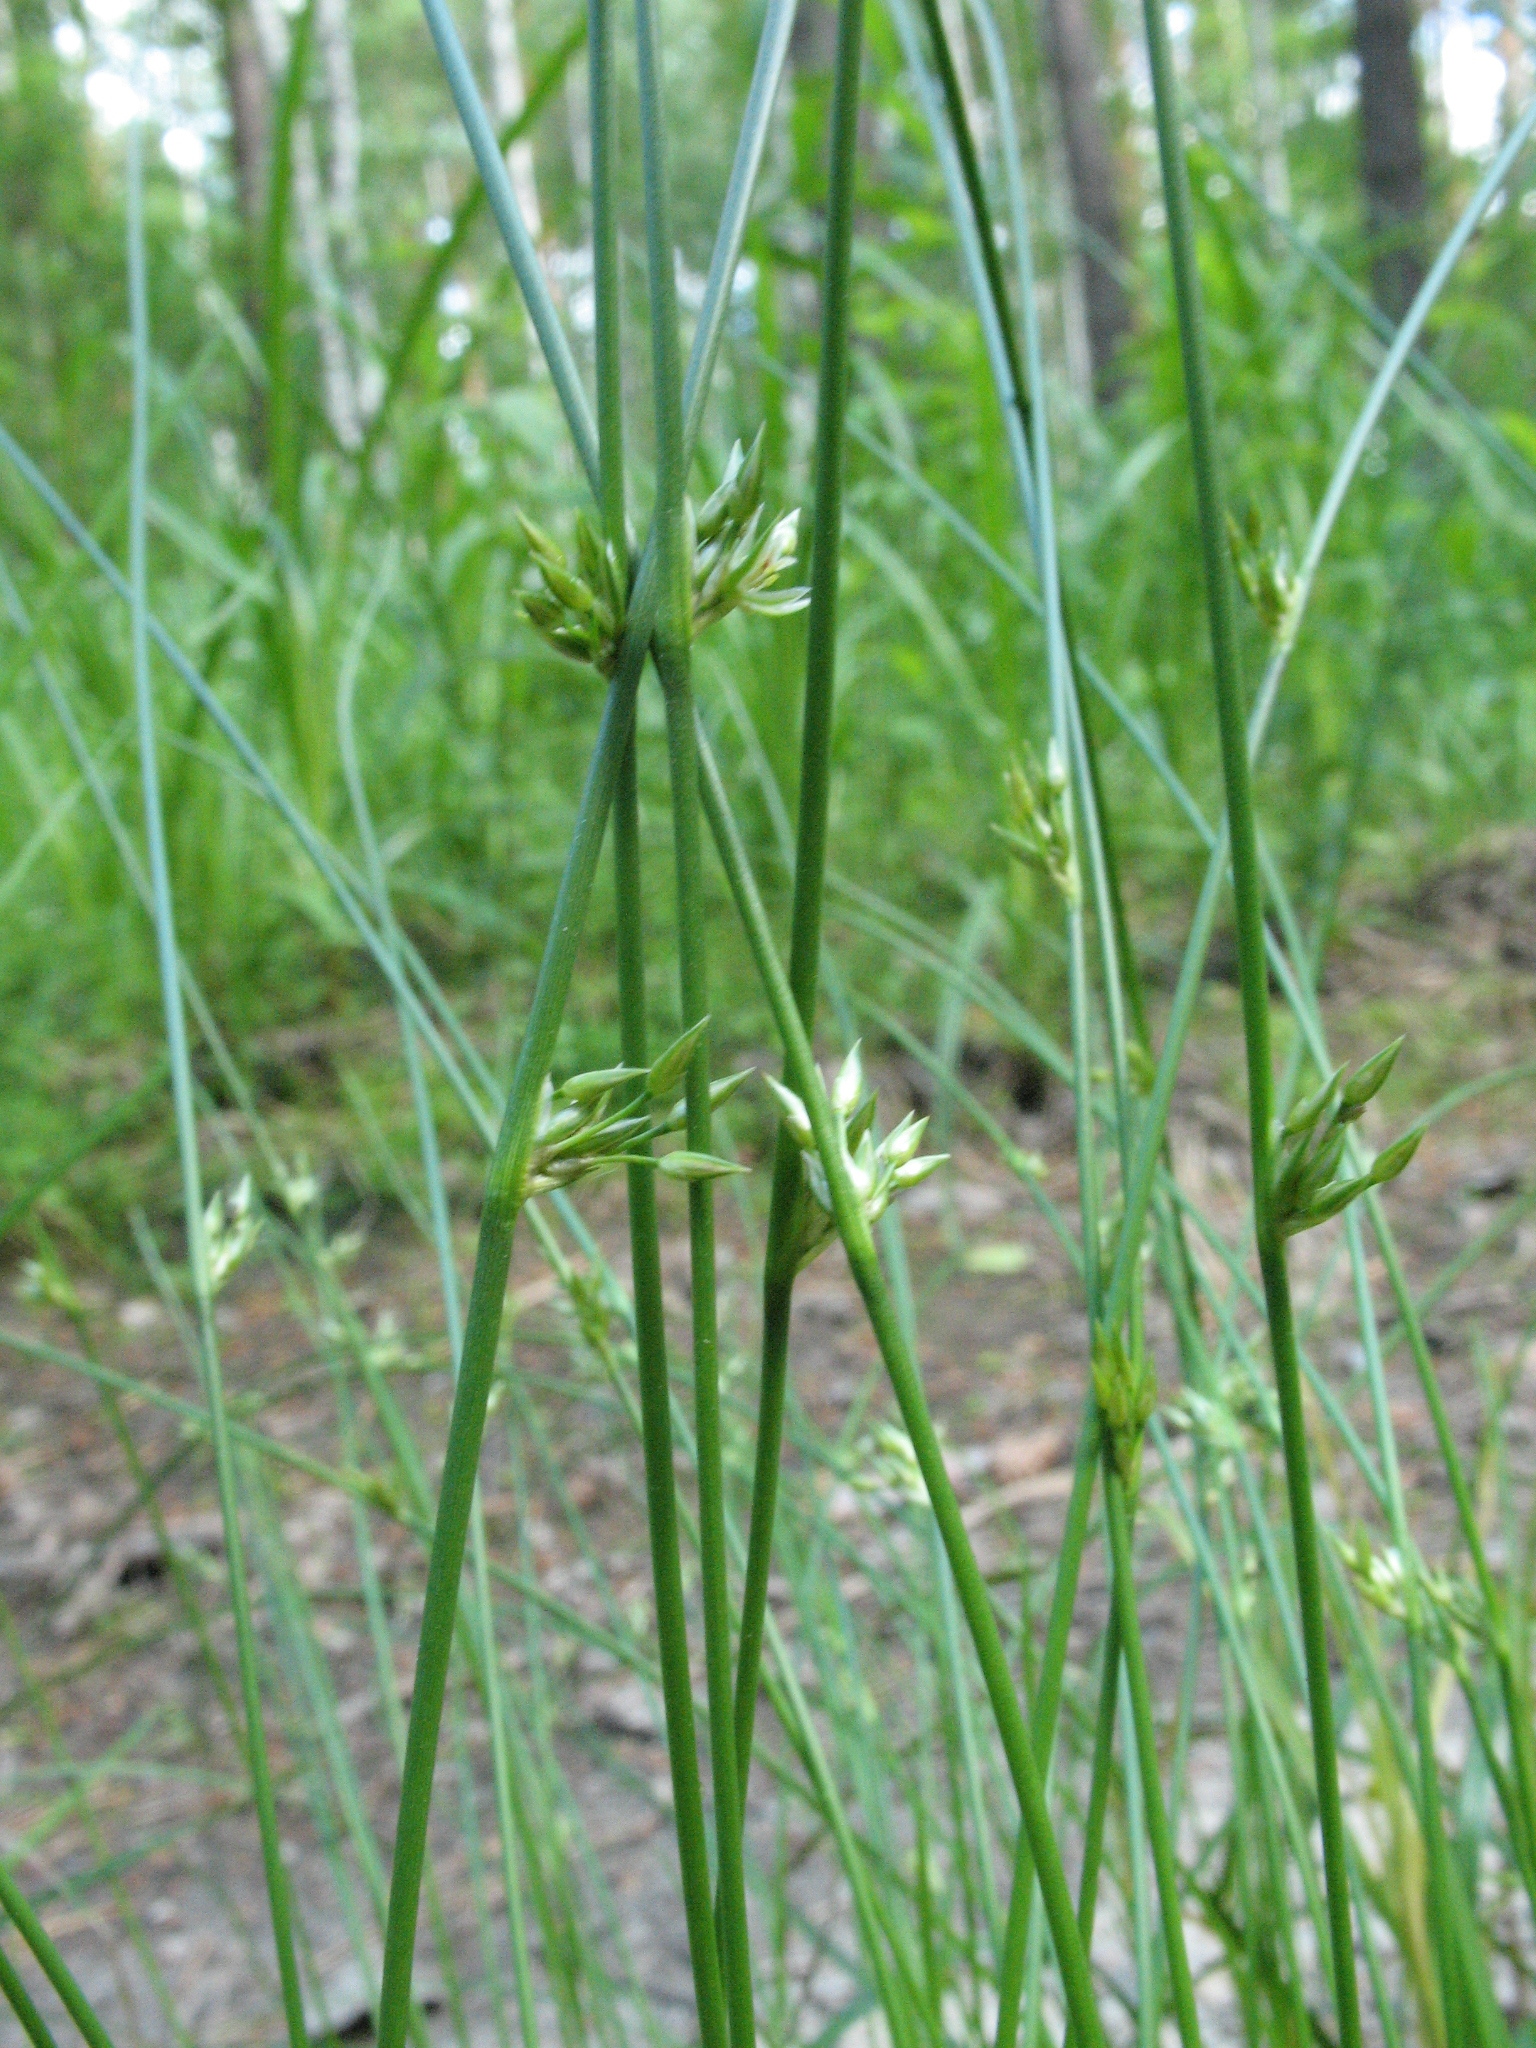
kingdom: Plantae
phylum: Tracheophyta
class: Liliopsida
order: Poales
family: Juncaceae
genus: Juncus
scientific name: Juncus filiformis
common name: Thread rush
